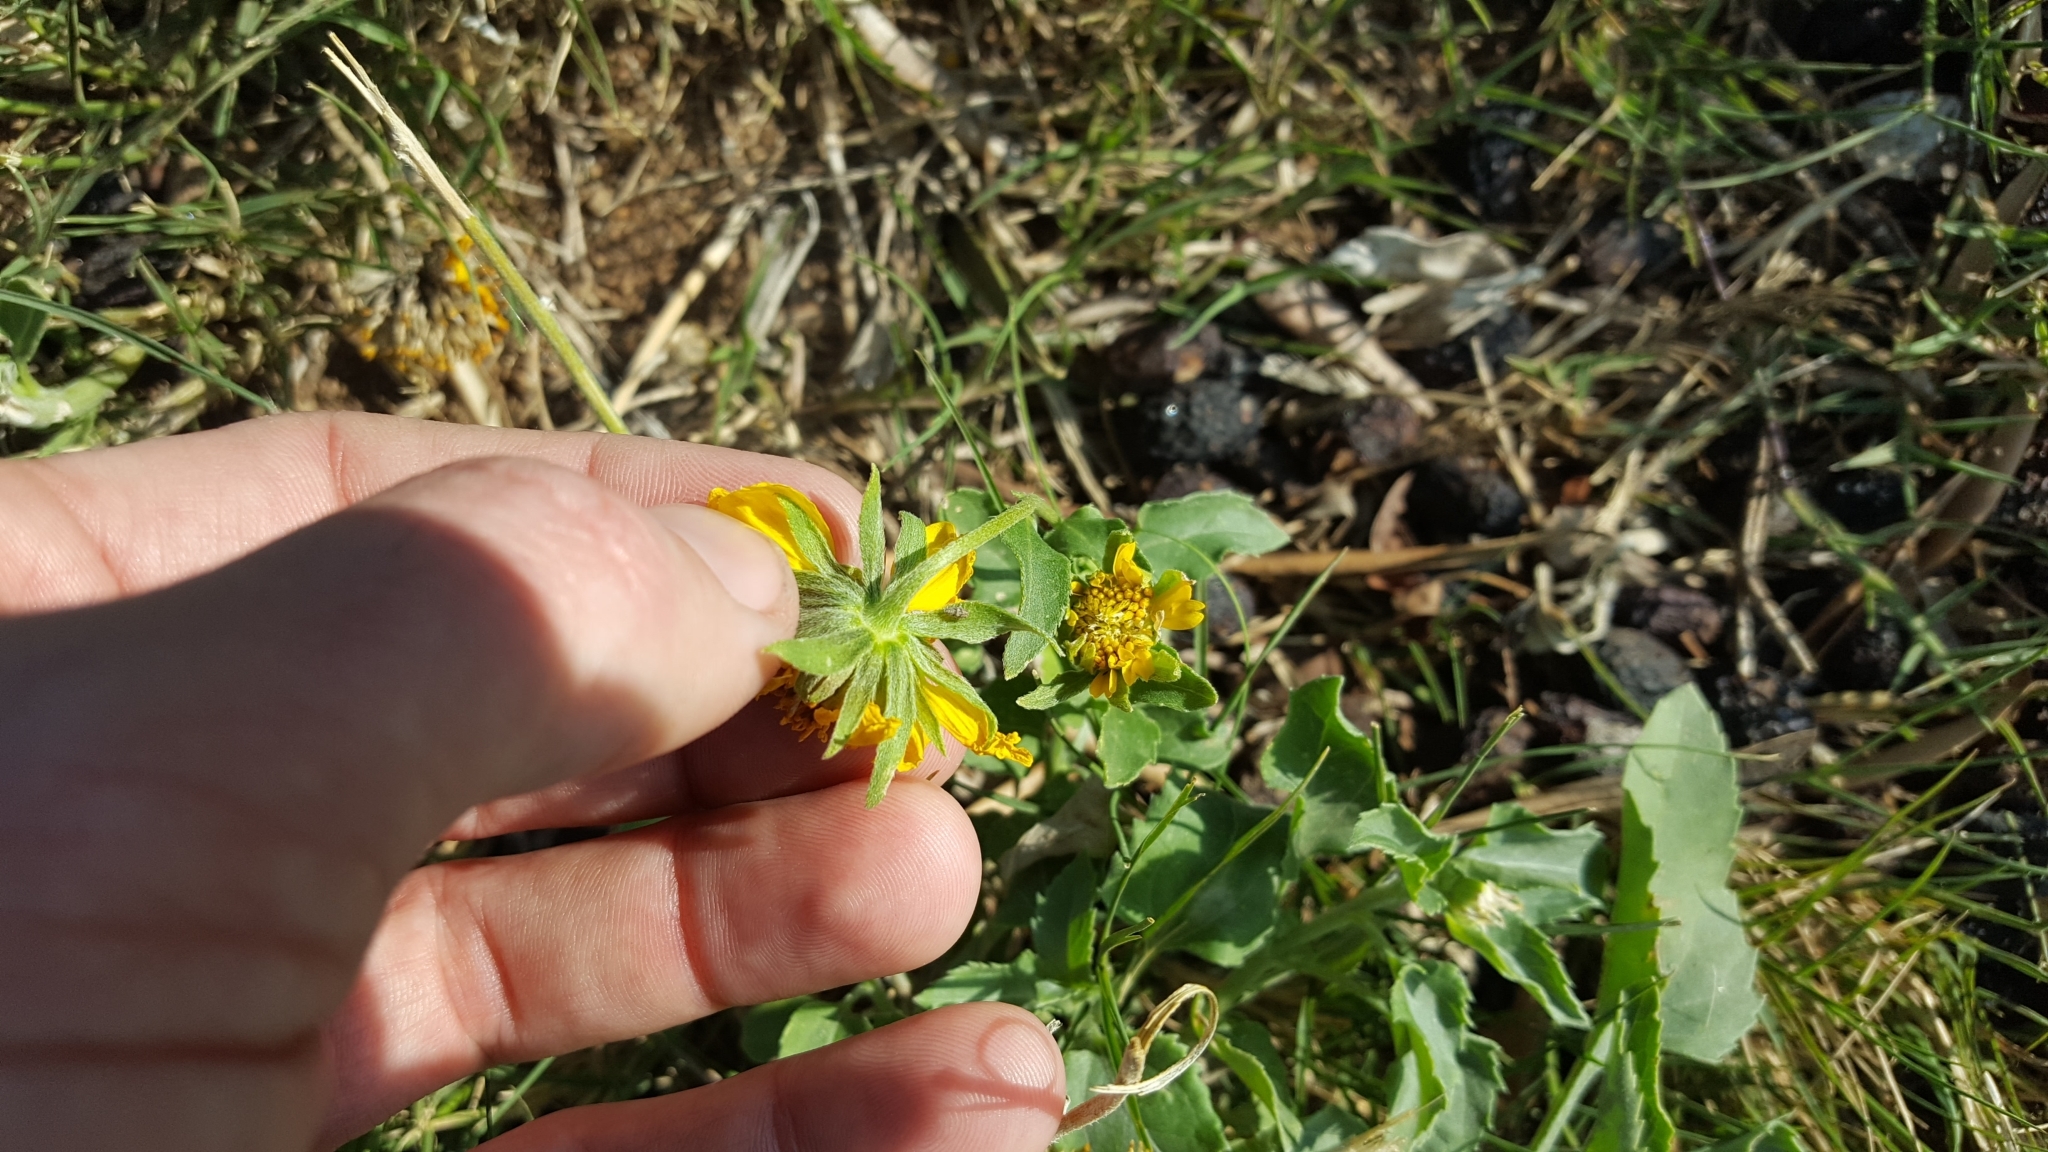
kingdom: Plantae
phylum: Tracheophyta
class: Magnoliopsida
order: Asterales
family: Asteraceae
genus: Verbesina
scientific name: Verbesina encelioides
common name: Golden crownbeard
